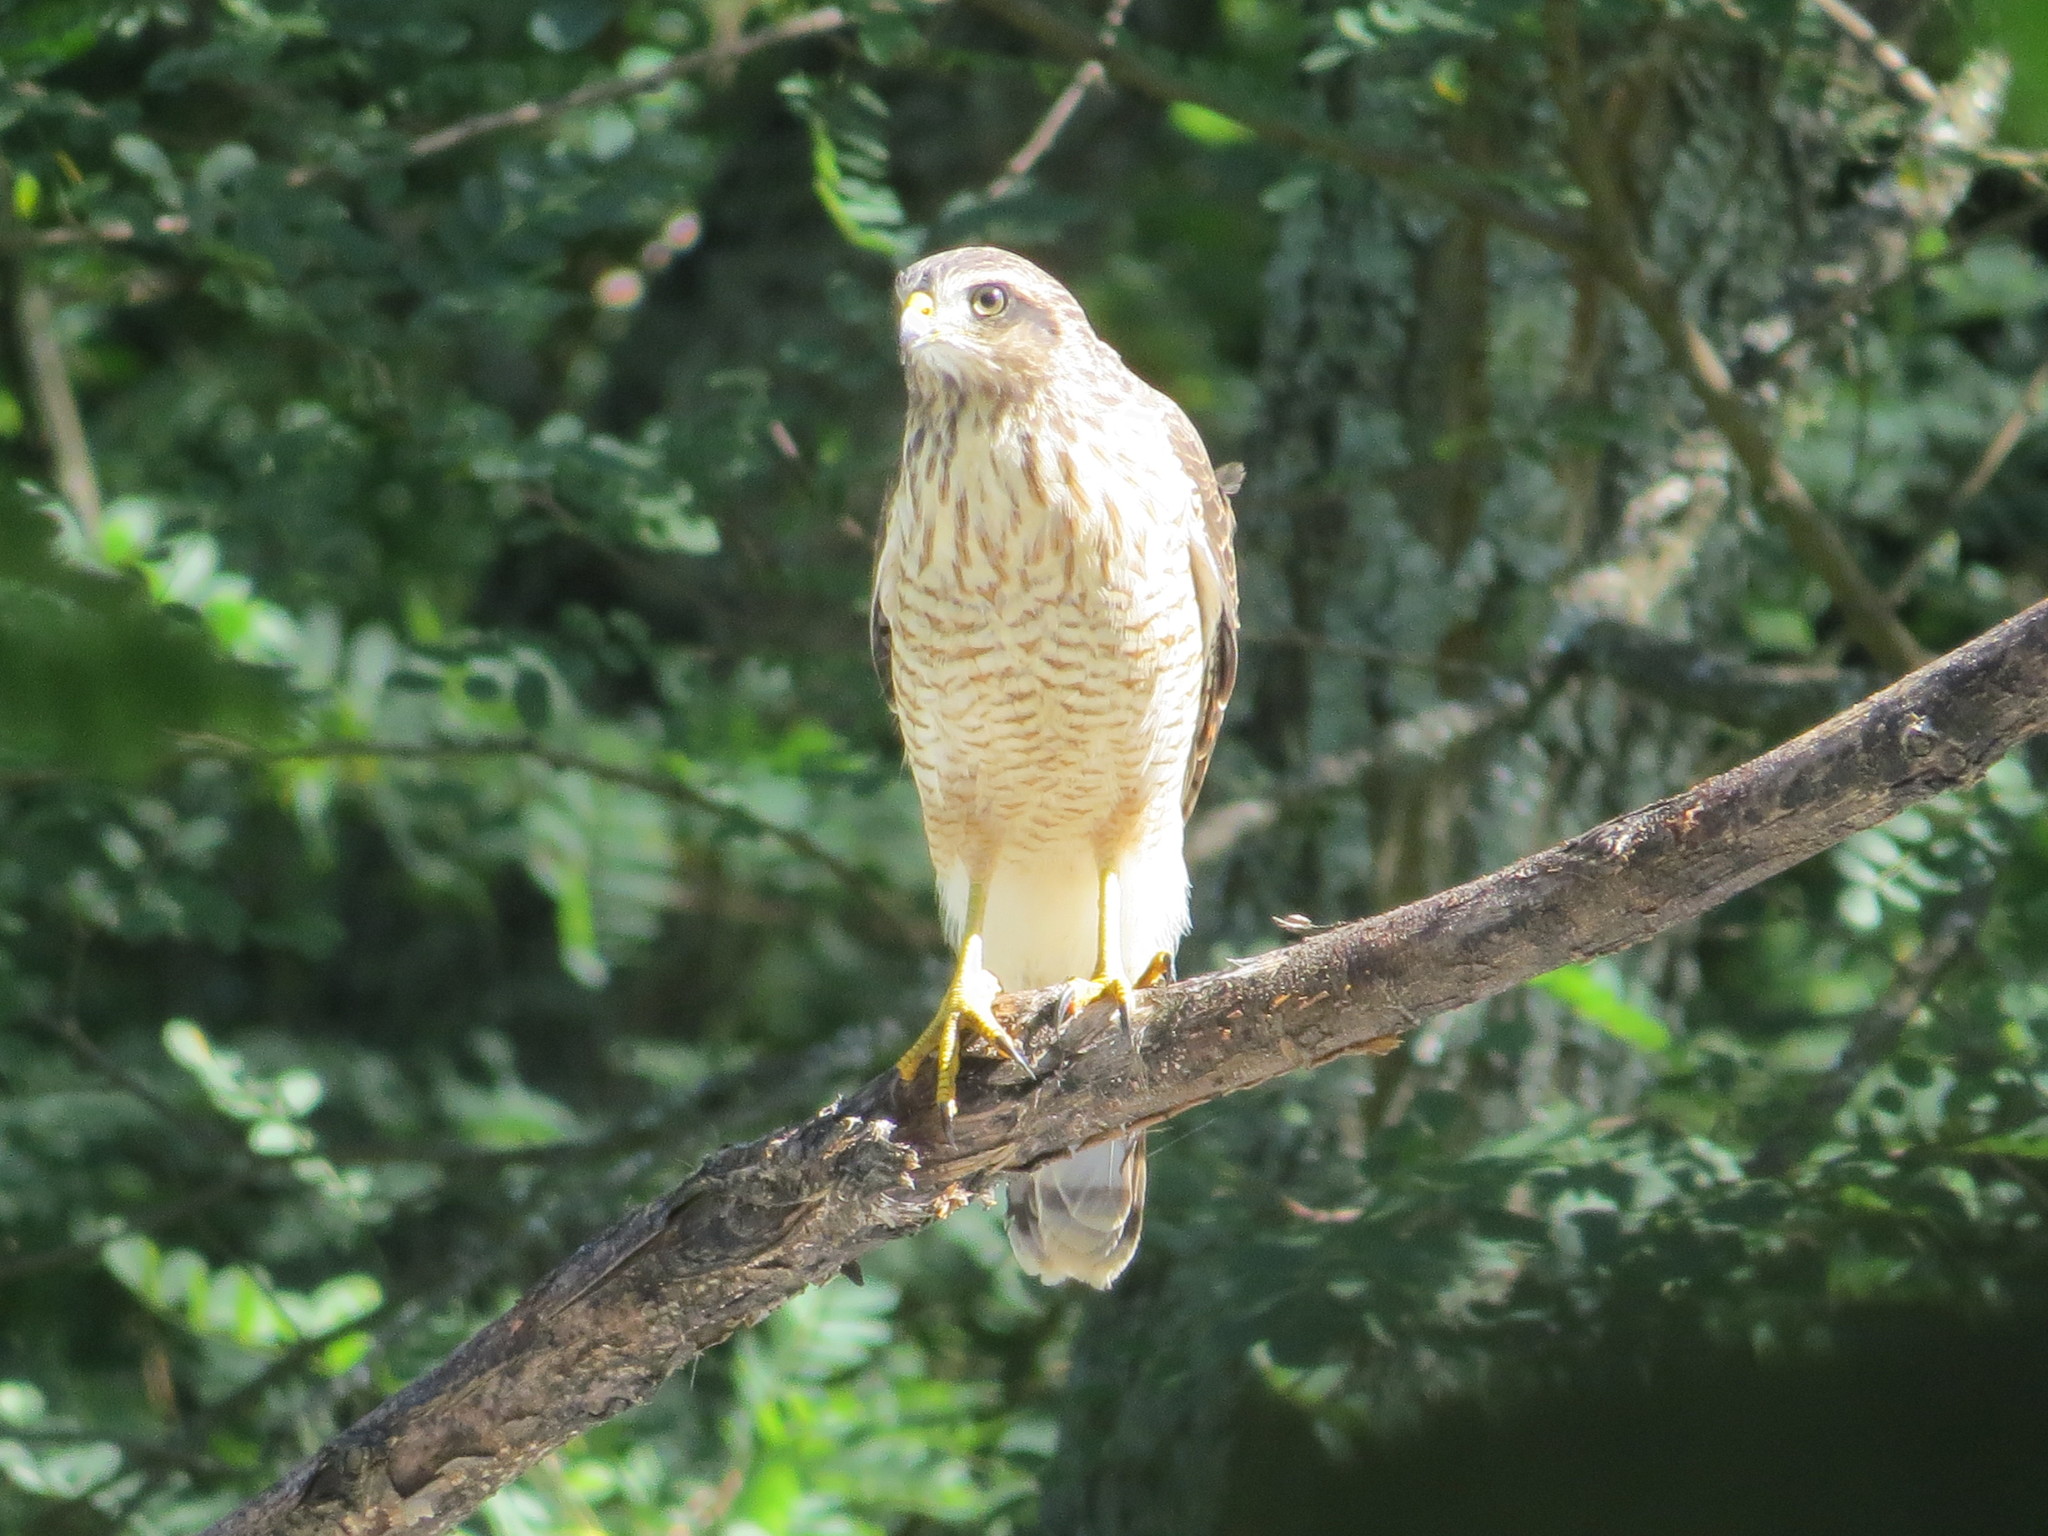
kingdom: Animalia
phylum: Chordata
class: Aves
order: Accipitriformes
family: Accipitridae
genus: Rupornis
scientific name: Rupornis magnirostris
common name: Roadside hawk
